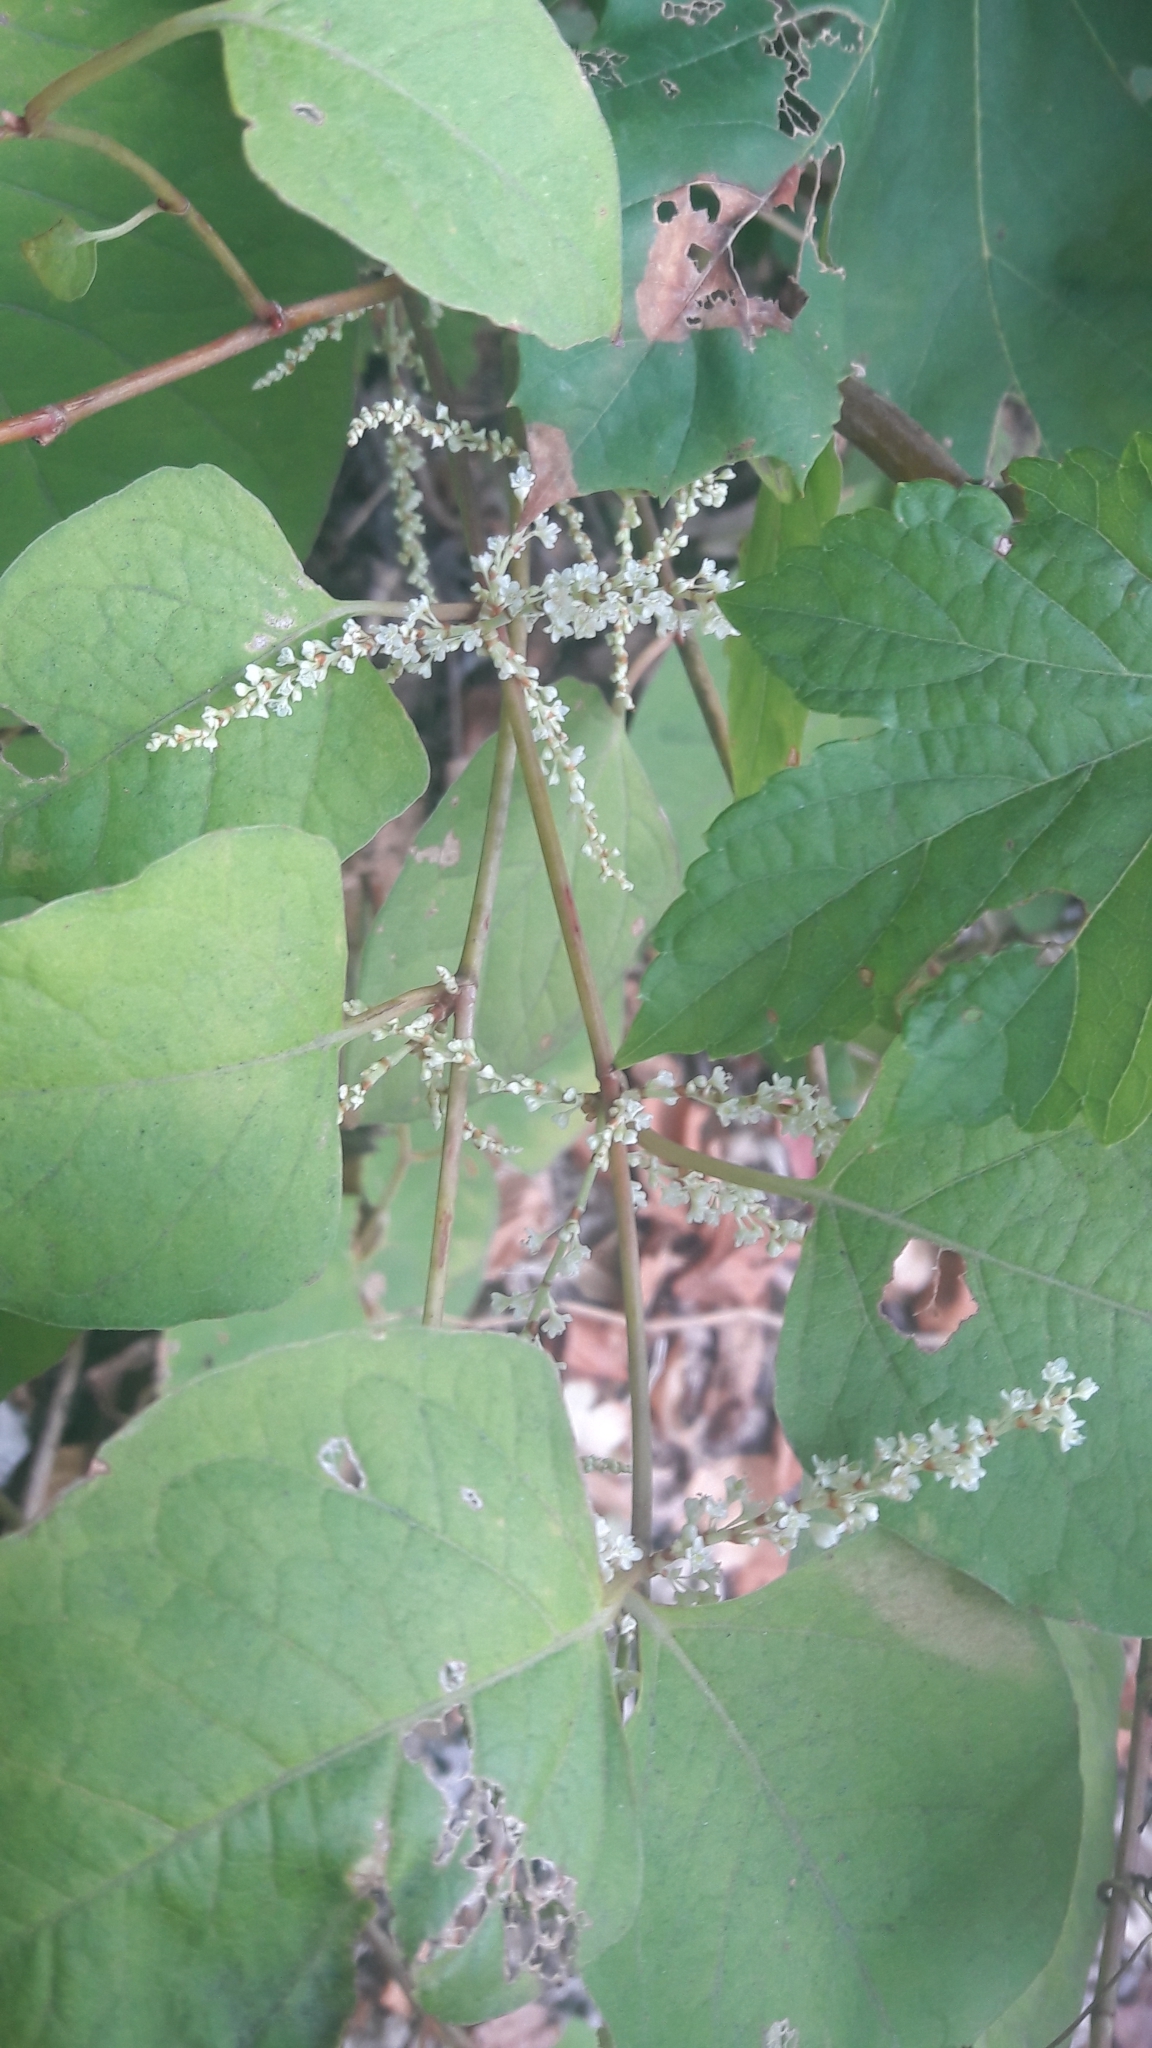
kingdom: Plantae
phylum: Tracheophyta
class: Magnoliopsida
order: Caryophyllales
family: Polygonaceae
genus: Reynoutria
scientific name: Reynoutria japonica
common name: Japanese knotweed
